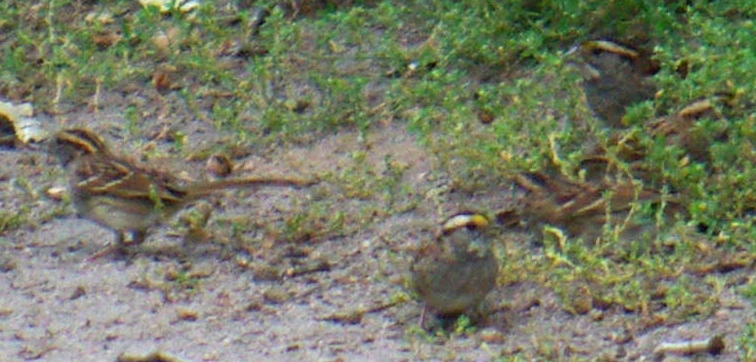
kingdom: Animalia
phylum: Chordata
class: Aves
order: Passeriformes
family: Passerellidae
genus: Zonotrichia
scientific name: Zonotrichia albicollis
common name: White-throated sparrow
